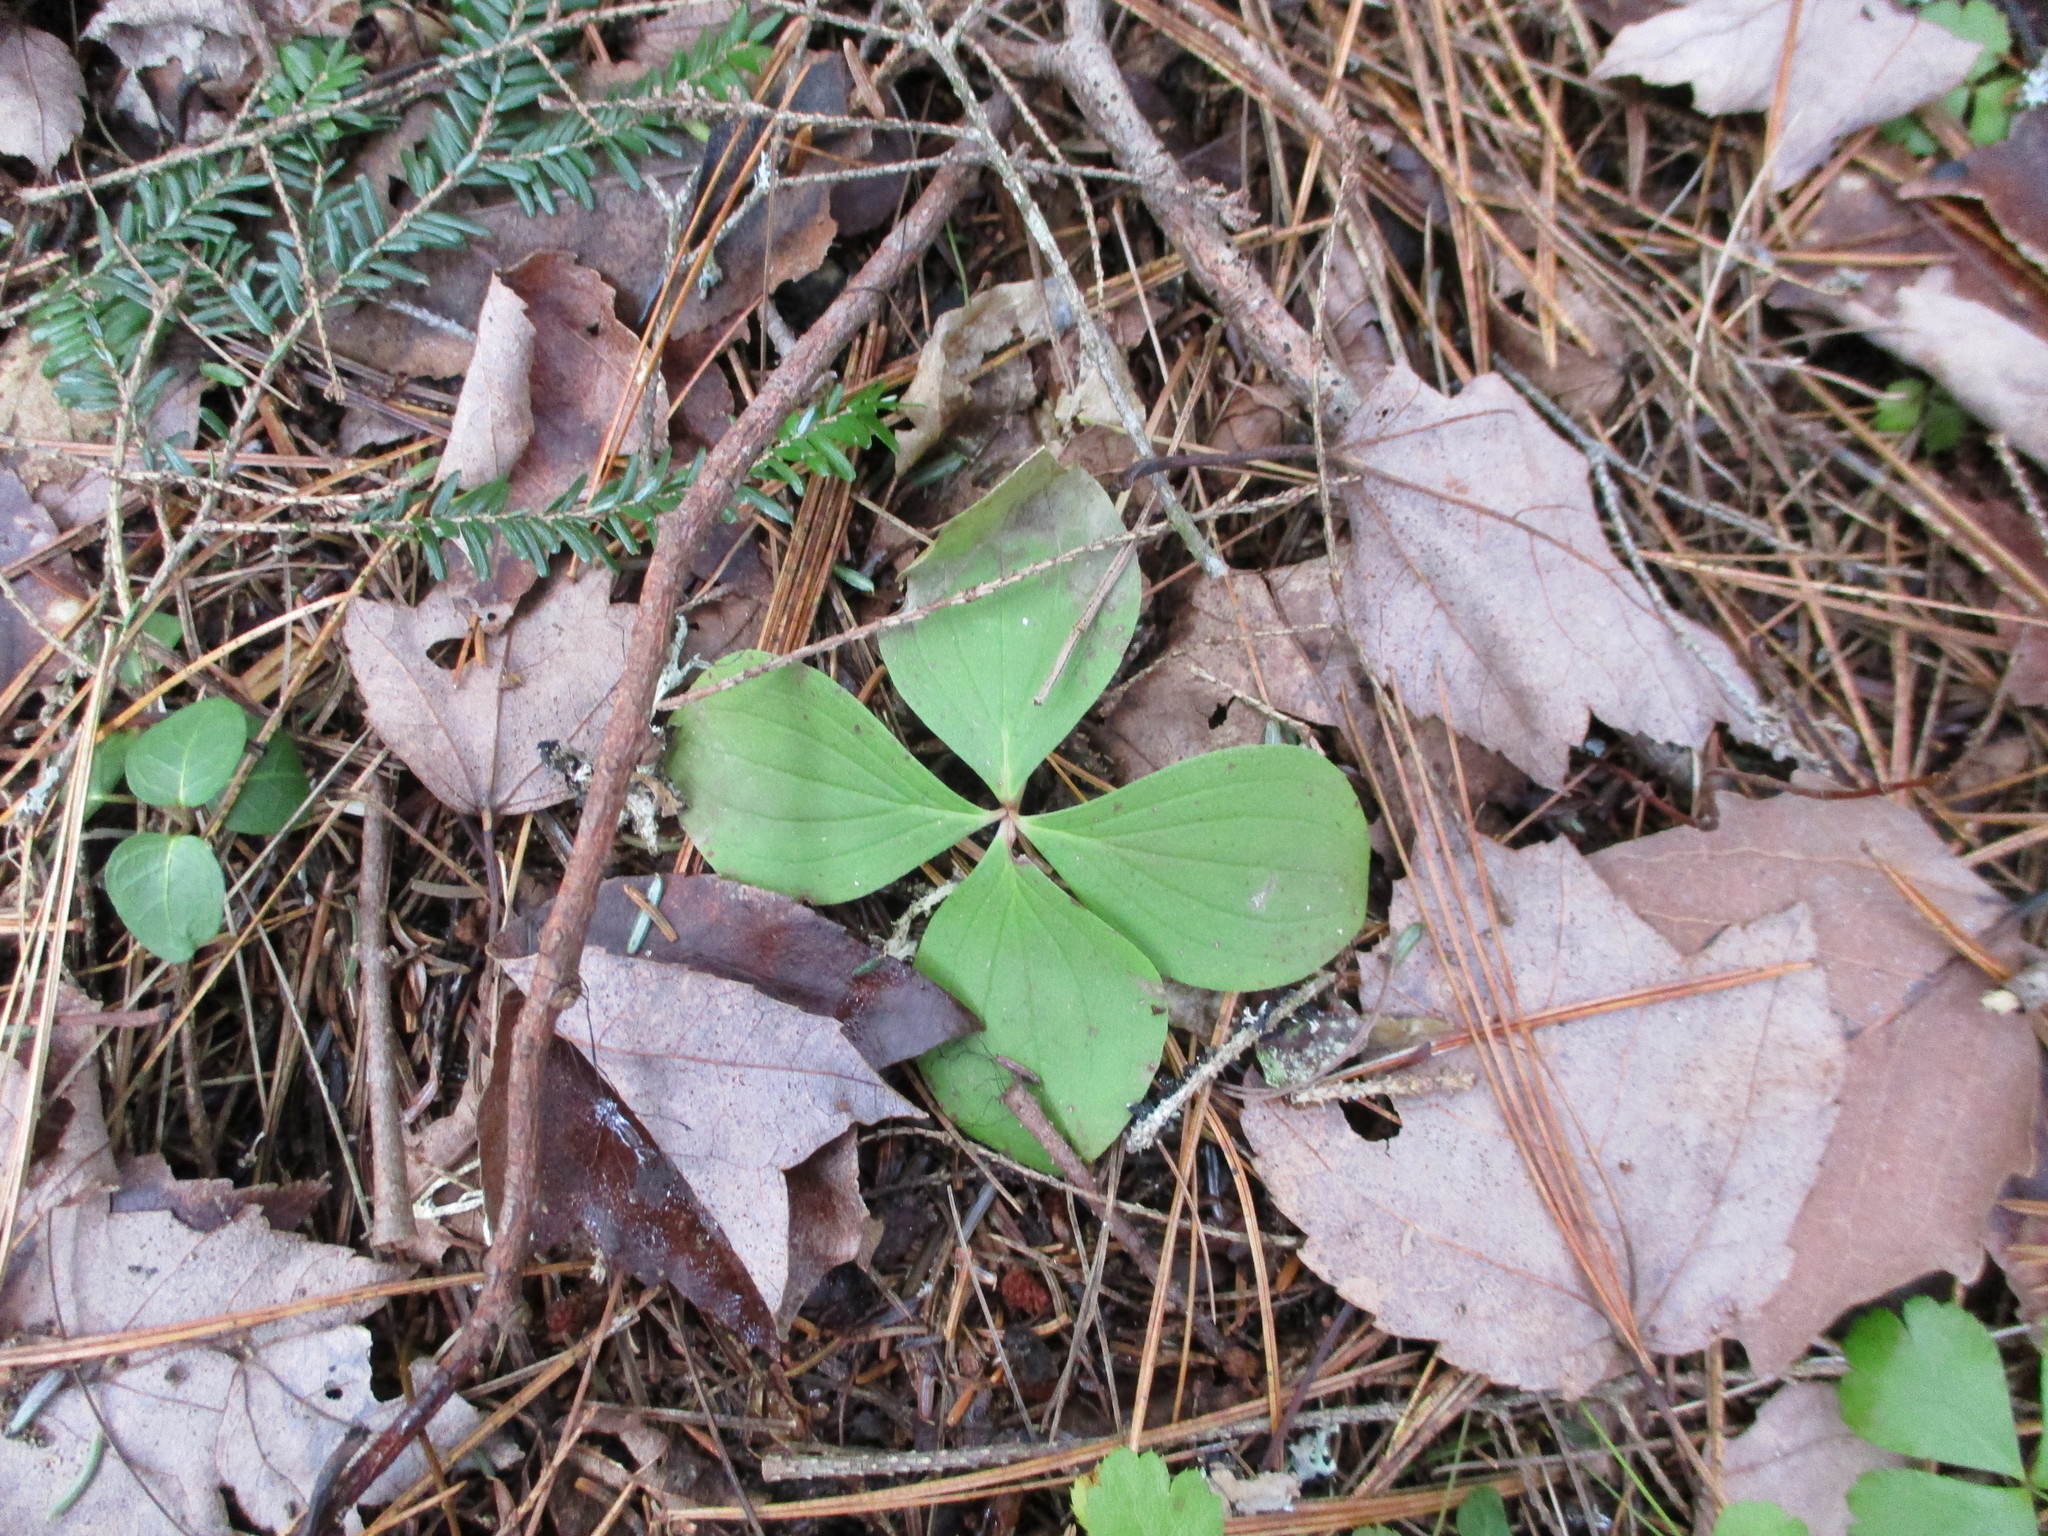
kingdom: Plantae
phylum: Tracheophyta
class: Magnoliopsida
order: Cornales
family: Cornaceae
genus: Cornus
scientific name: Cornus canadensis
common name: Creeping dogwood
